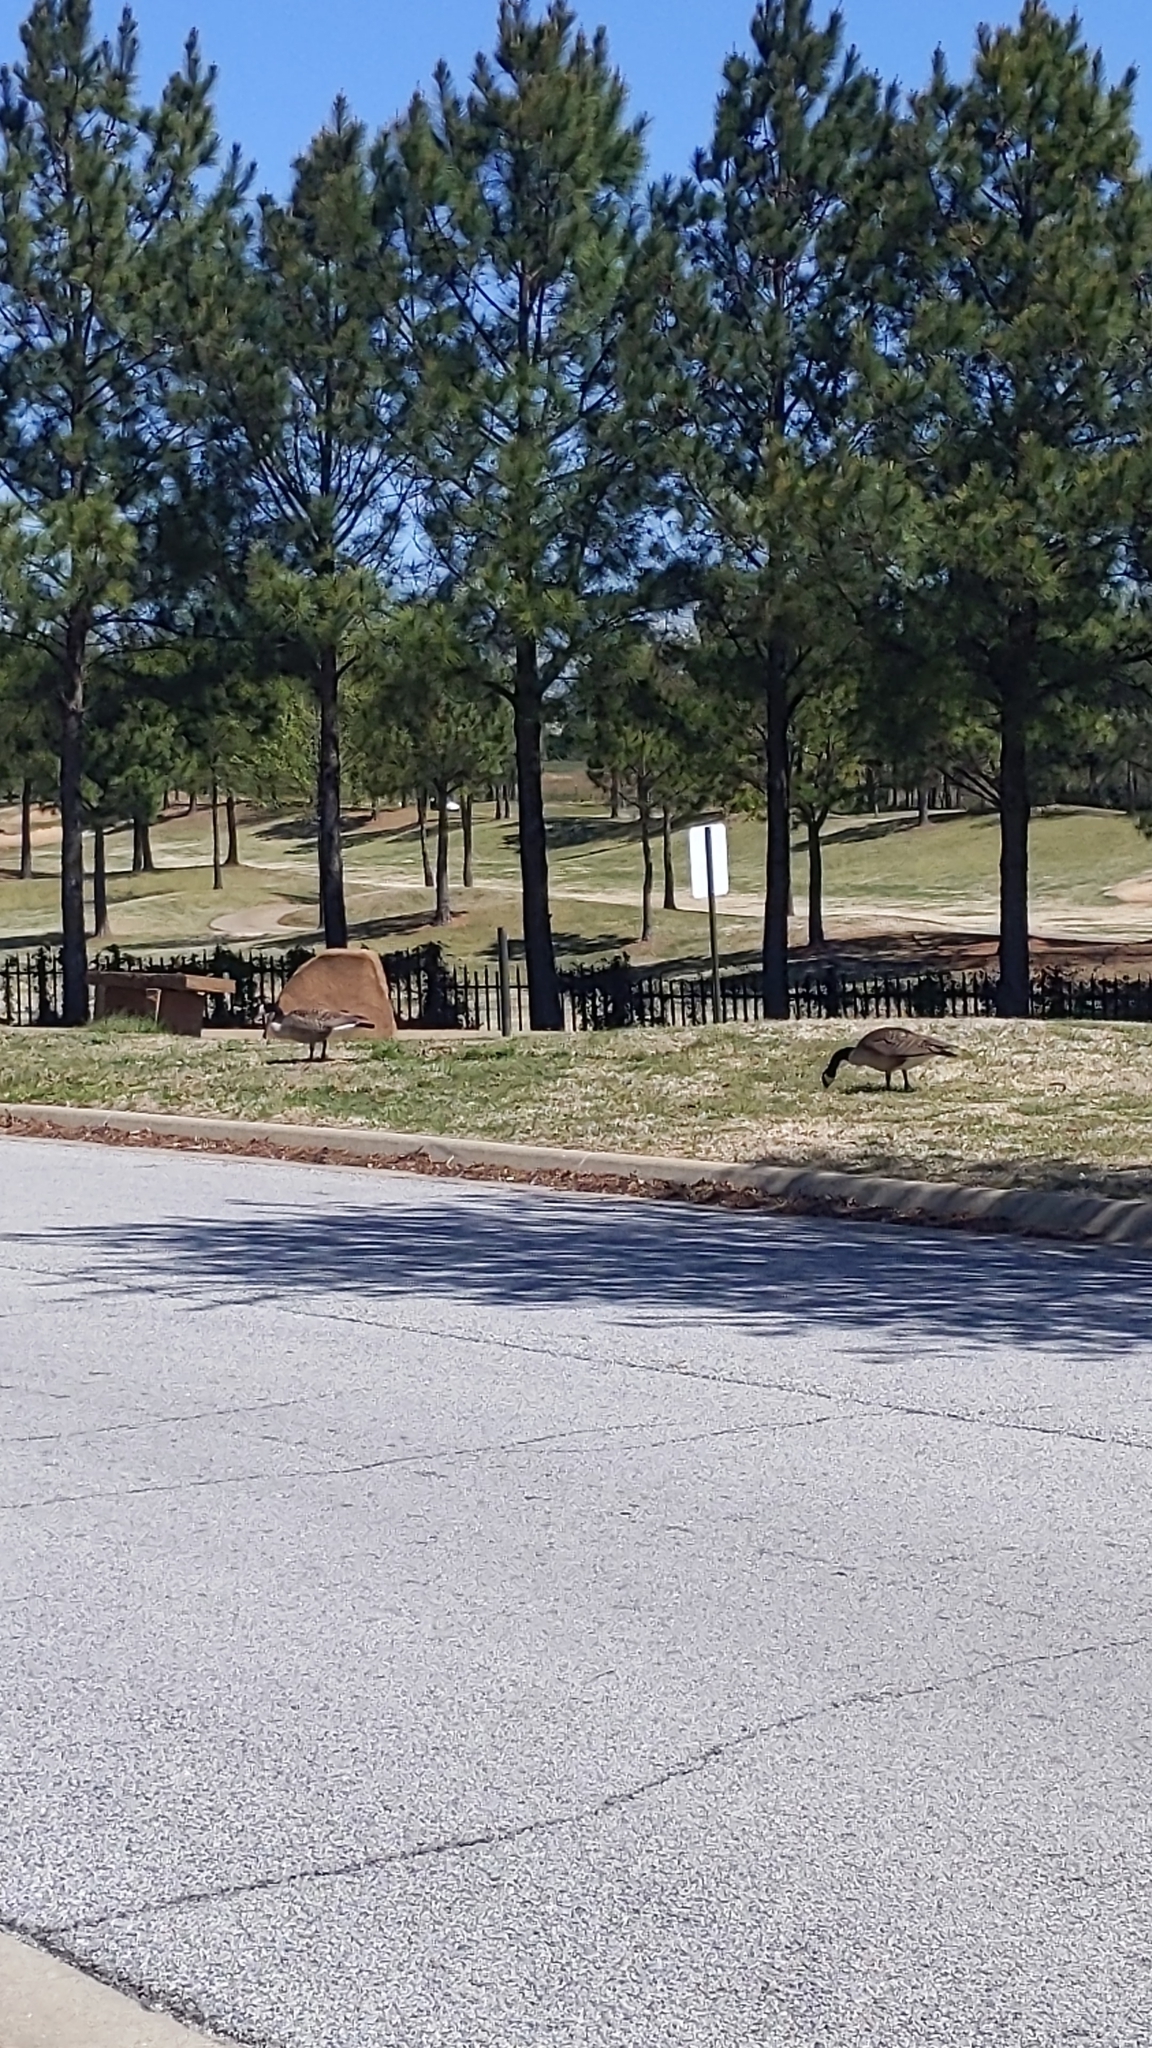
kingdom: Animalia
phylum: Chordata
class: Aves
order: Anseriformes
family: Anatidae
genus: Branta
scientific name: Branta canadensis
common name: Canada goose
